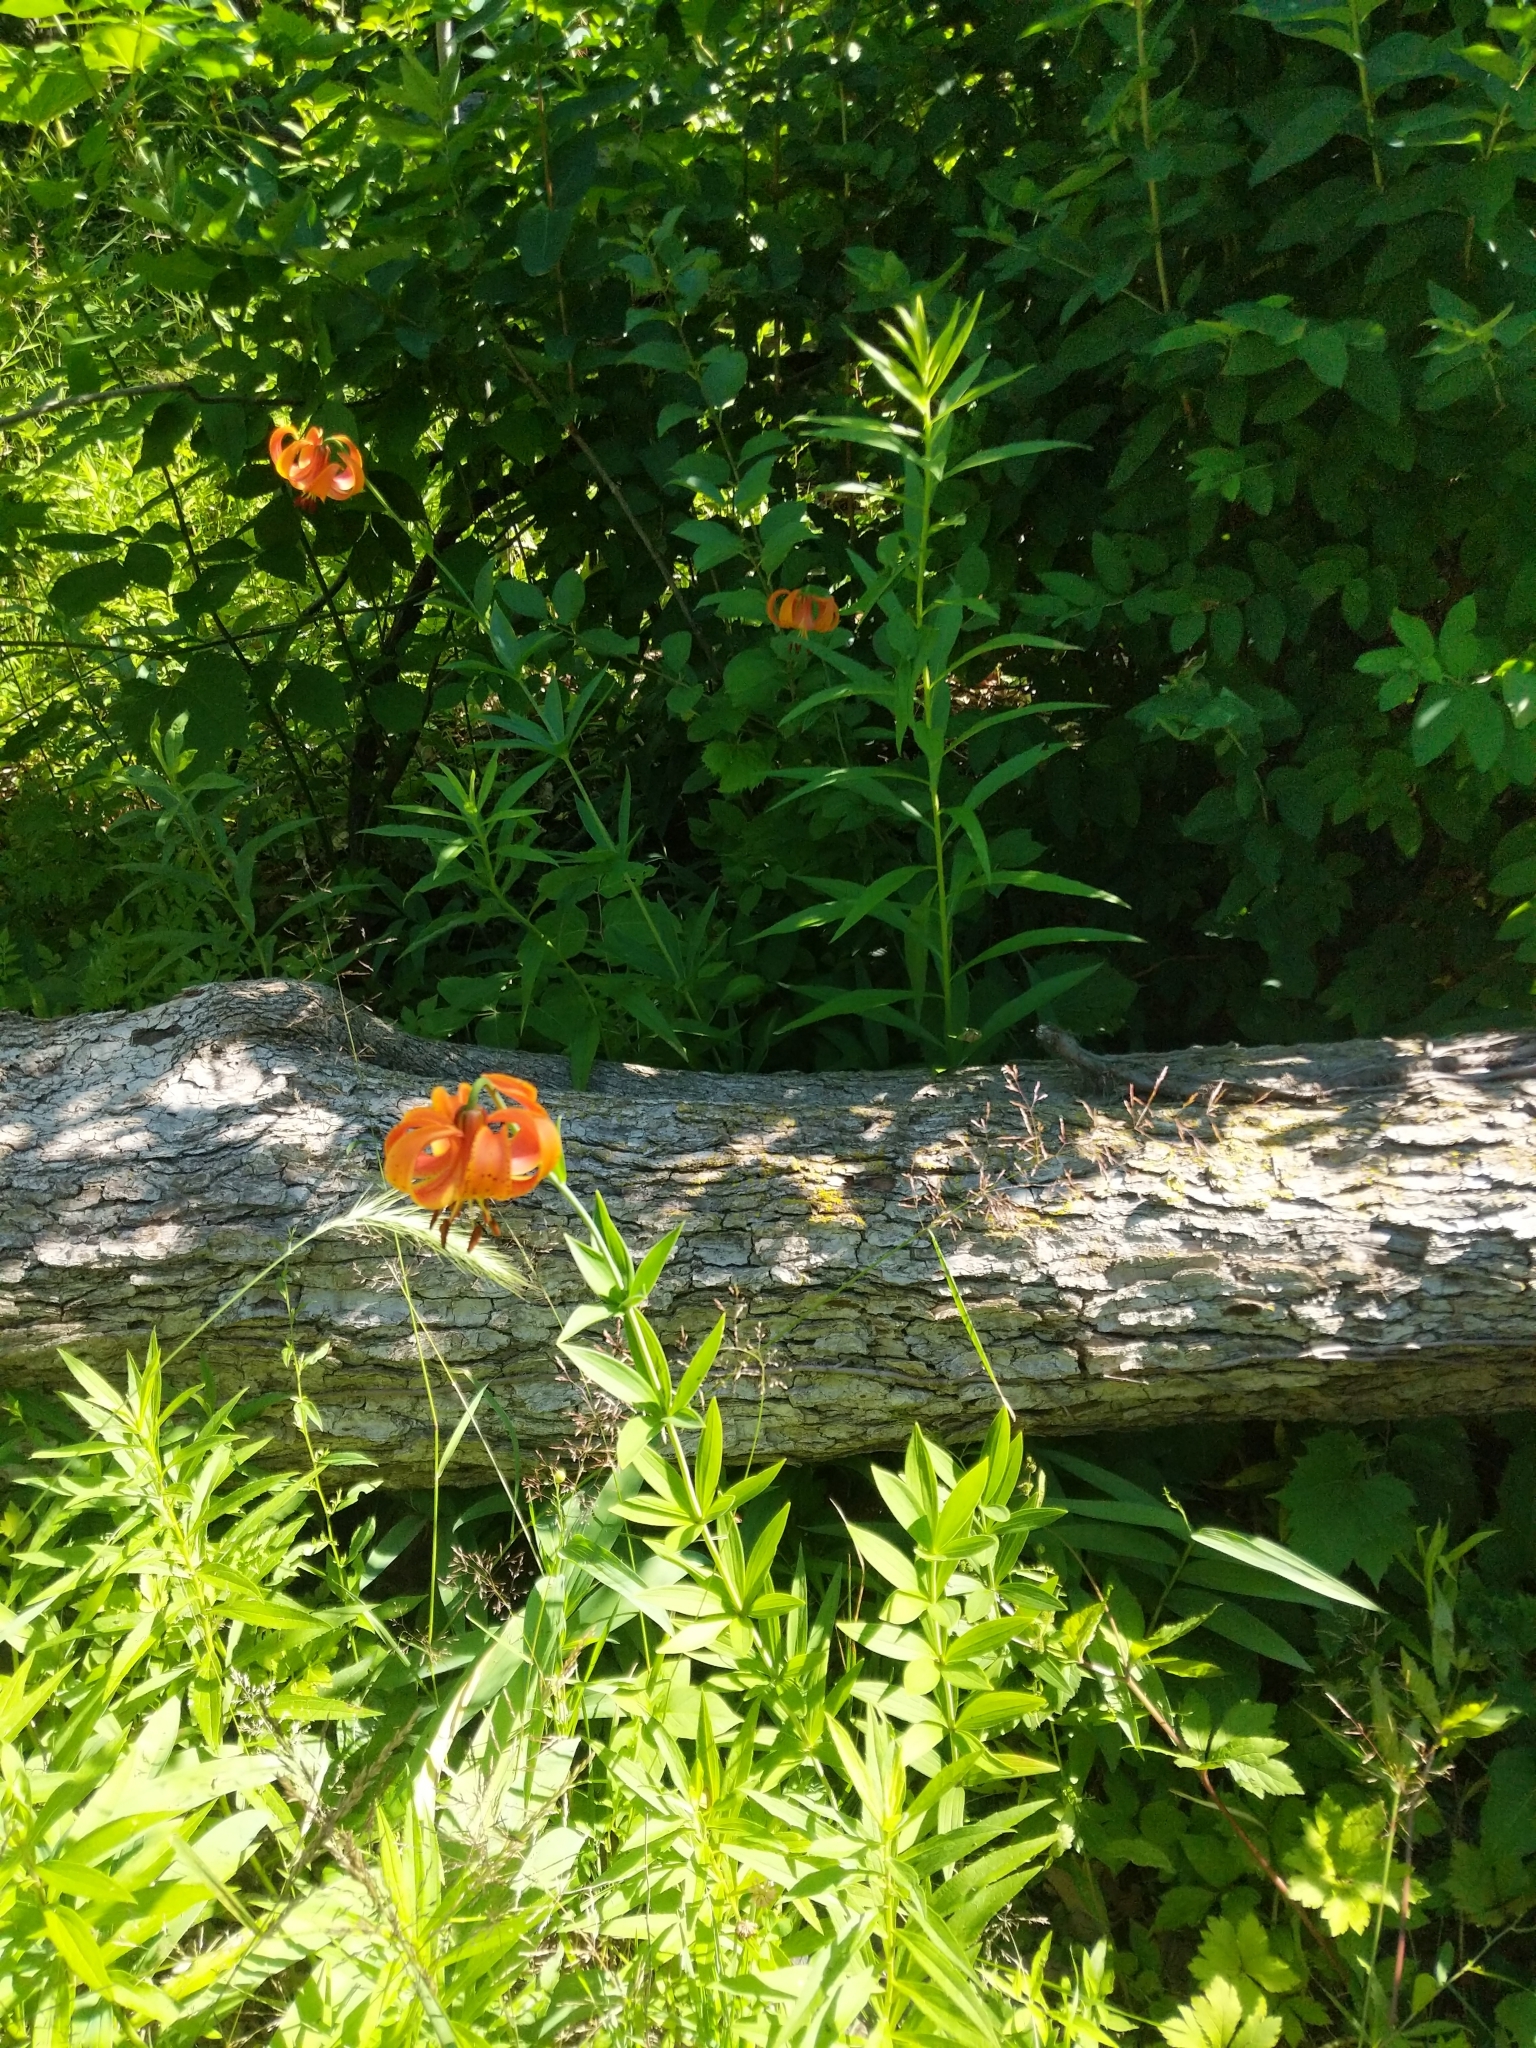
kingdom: Plantae
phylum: Tracheophyta
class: Liliopsida
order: Liliales
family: Liliaceae
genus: Lilium
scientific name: Lilium michiganense
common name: Michigan lily
